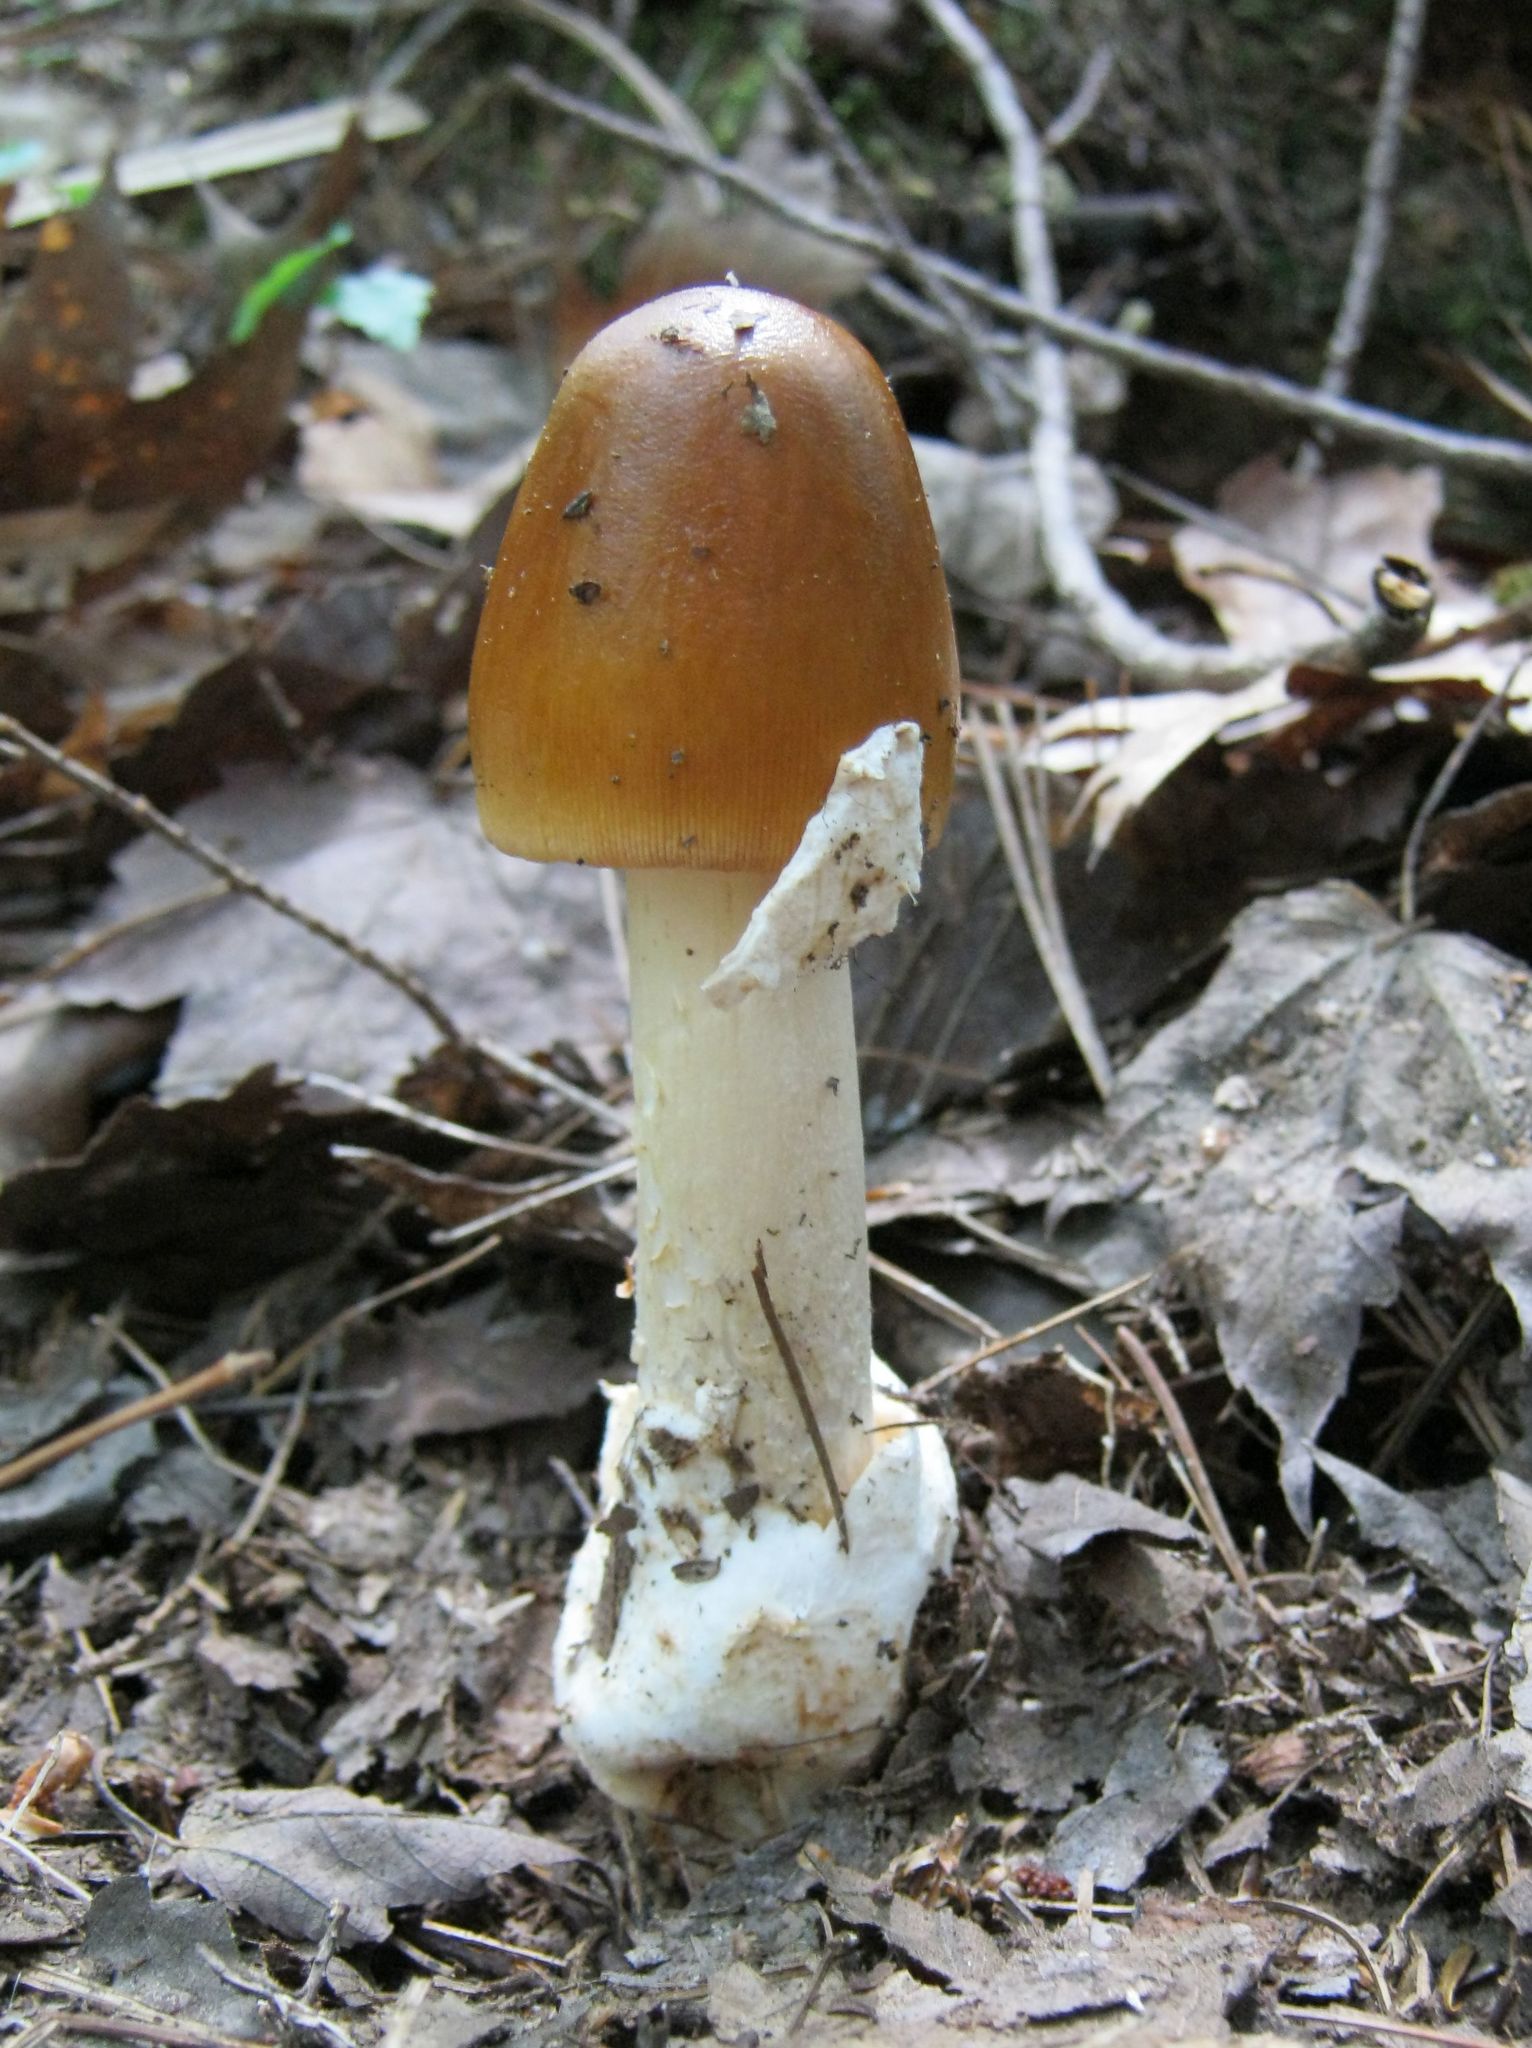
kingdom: Fungi
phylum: Basidiomycota
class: Agaricomycetes
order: Agaricales
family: Amanitaceae
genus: Amanita
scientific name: Amanita fulva
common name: Tawny grisette
